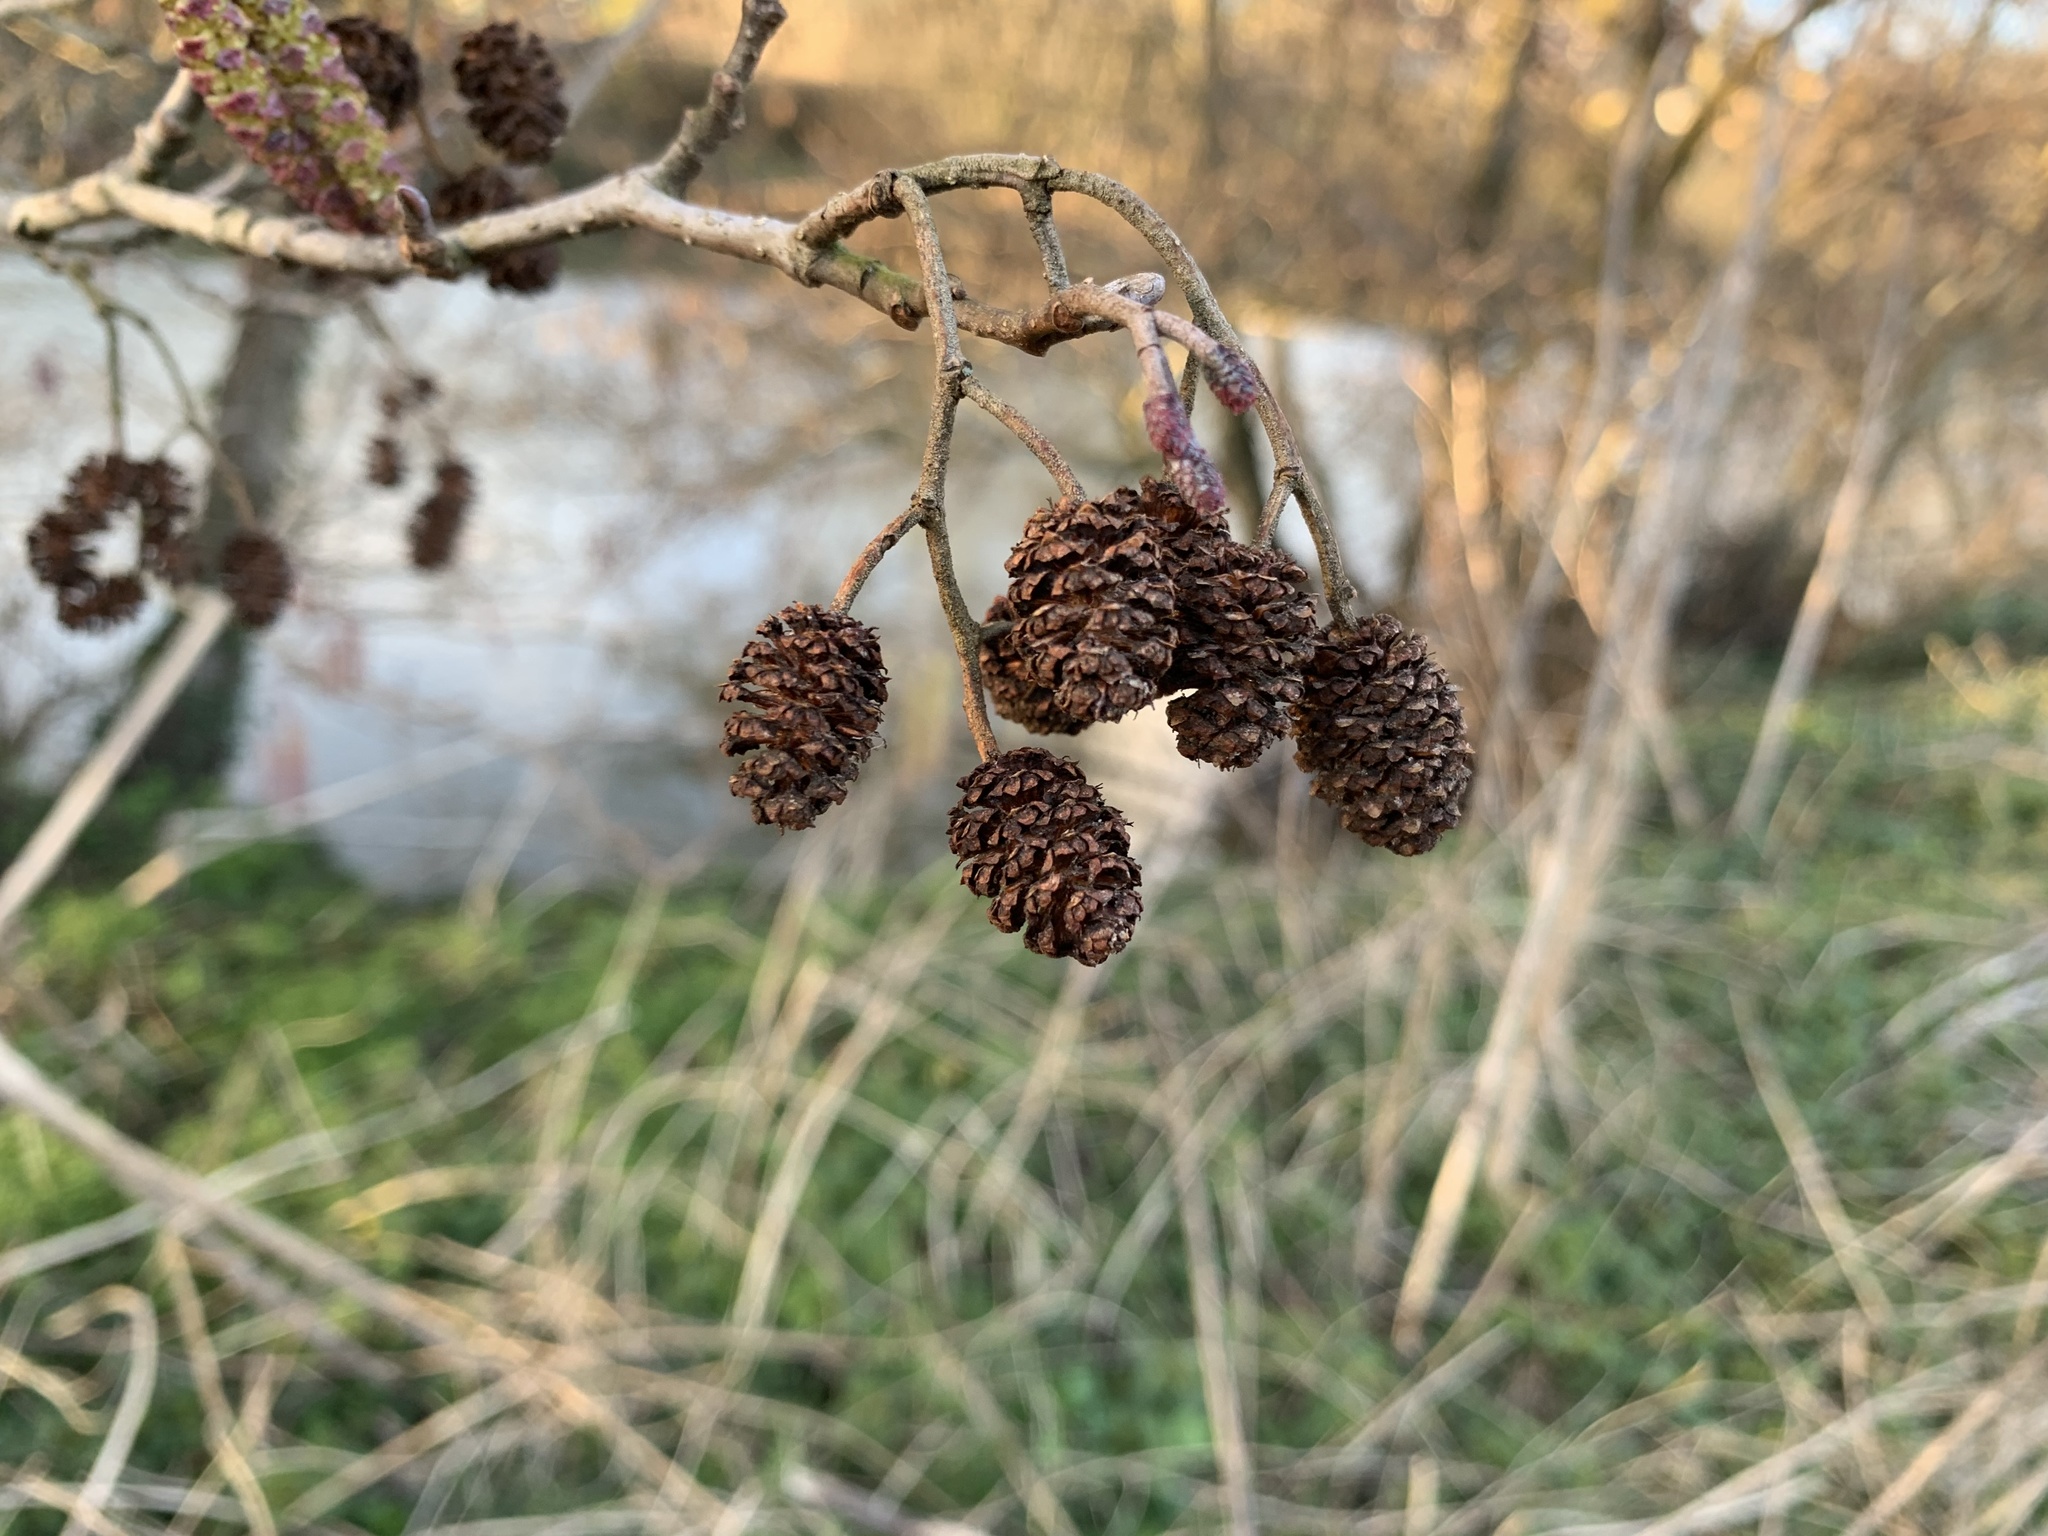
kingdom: Plantae
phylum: Tracheophyta
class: Magnoliopsida
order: Fagales
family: Betulaceae
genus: Alnus
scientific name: Alnus glutinosa
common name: Black alder
